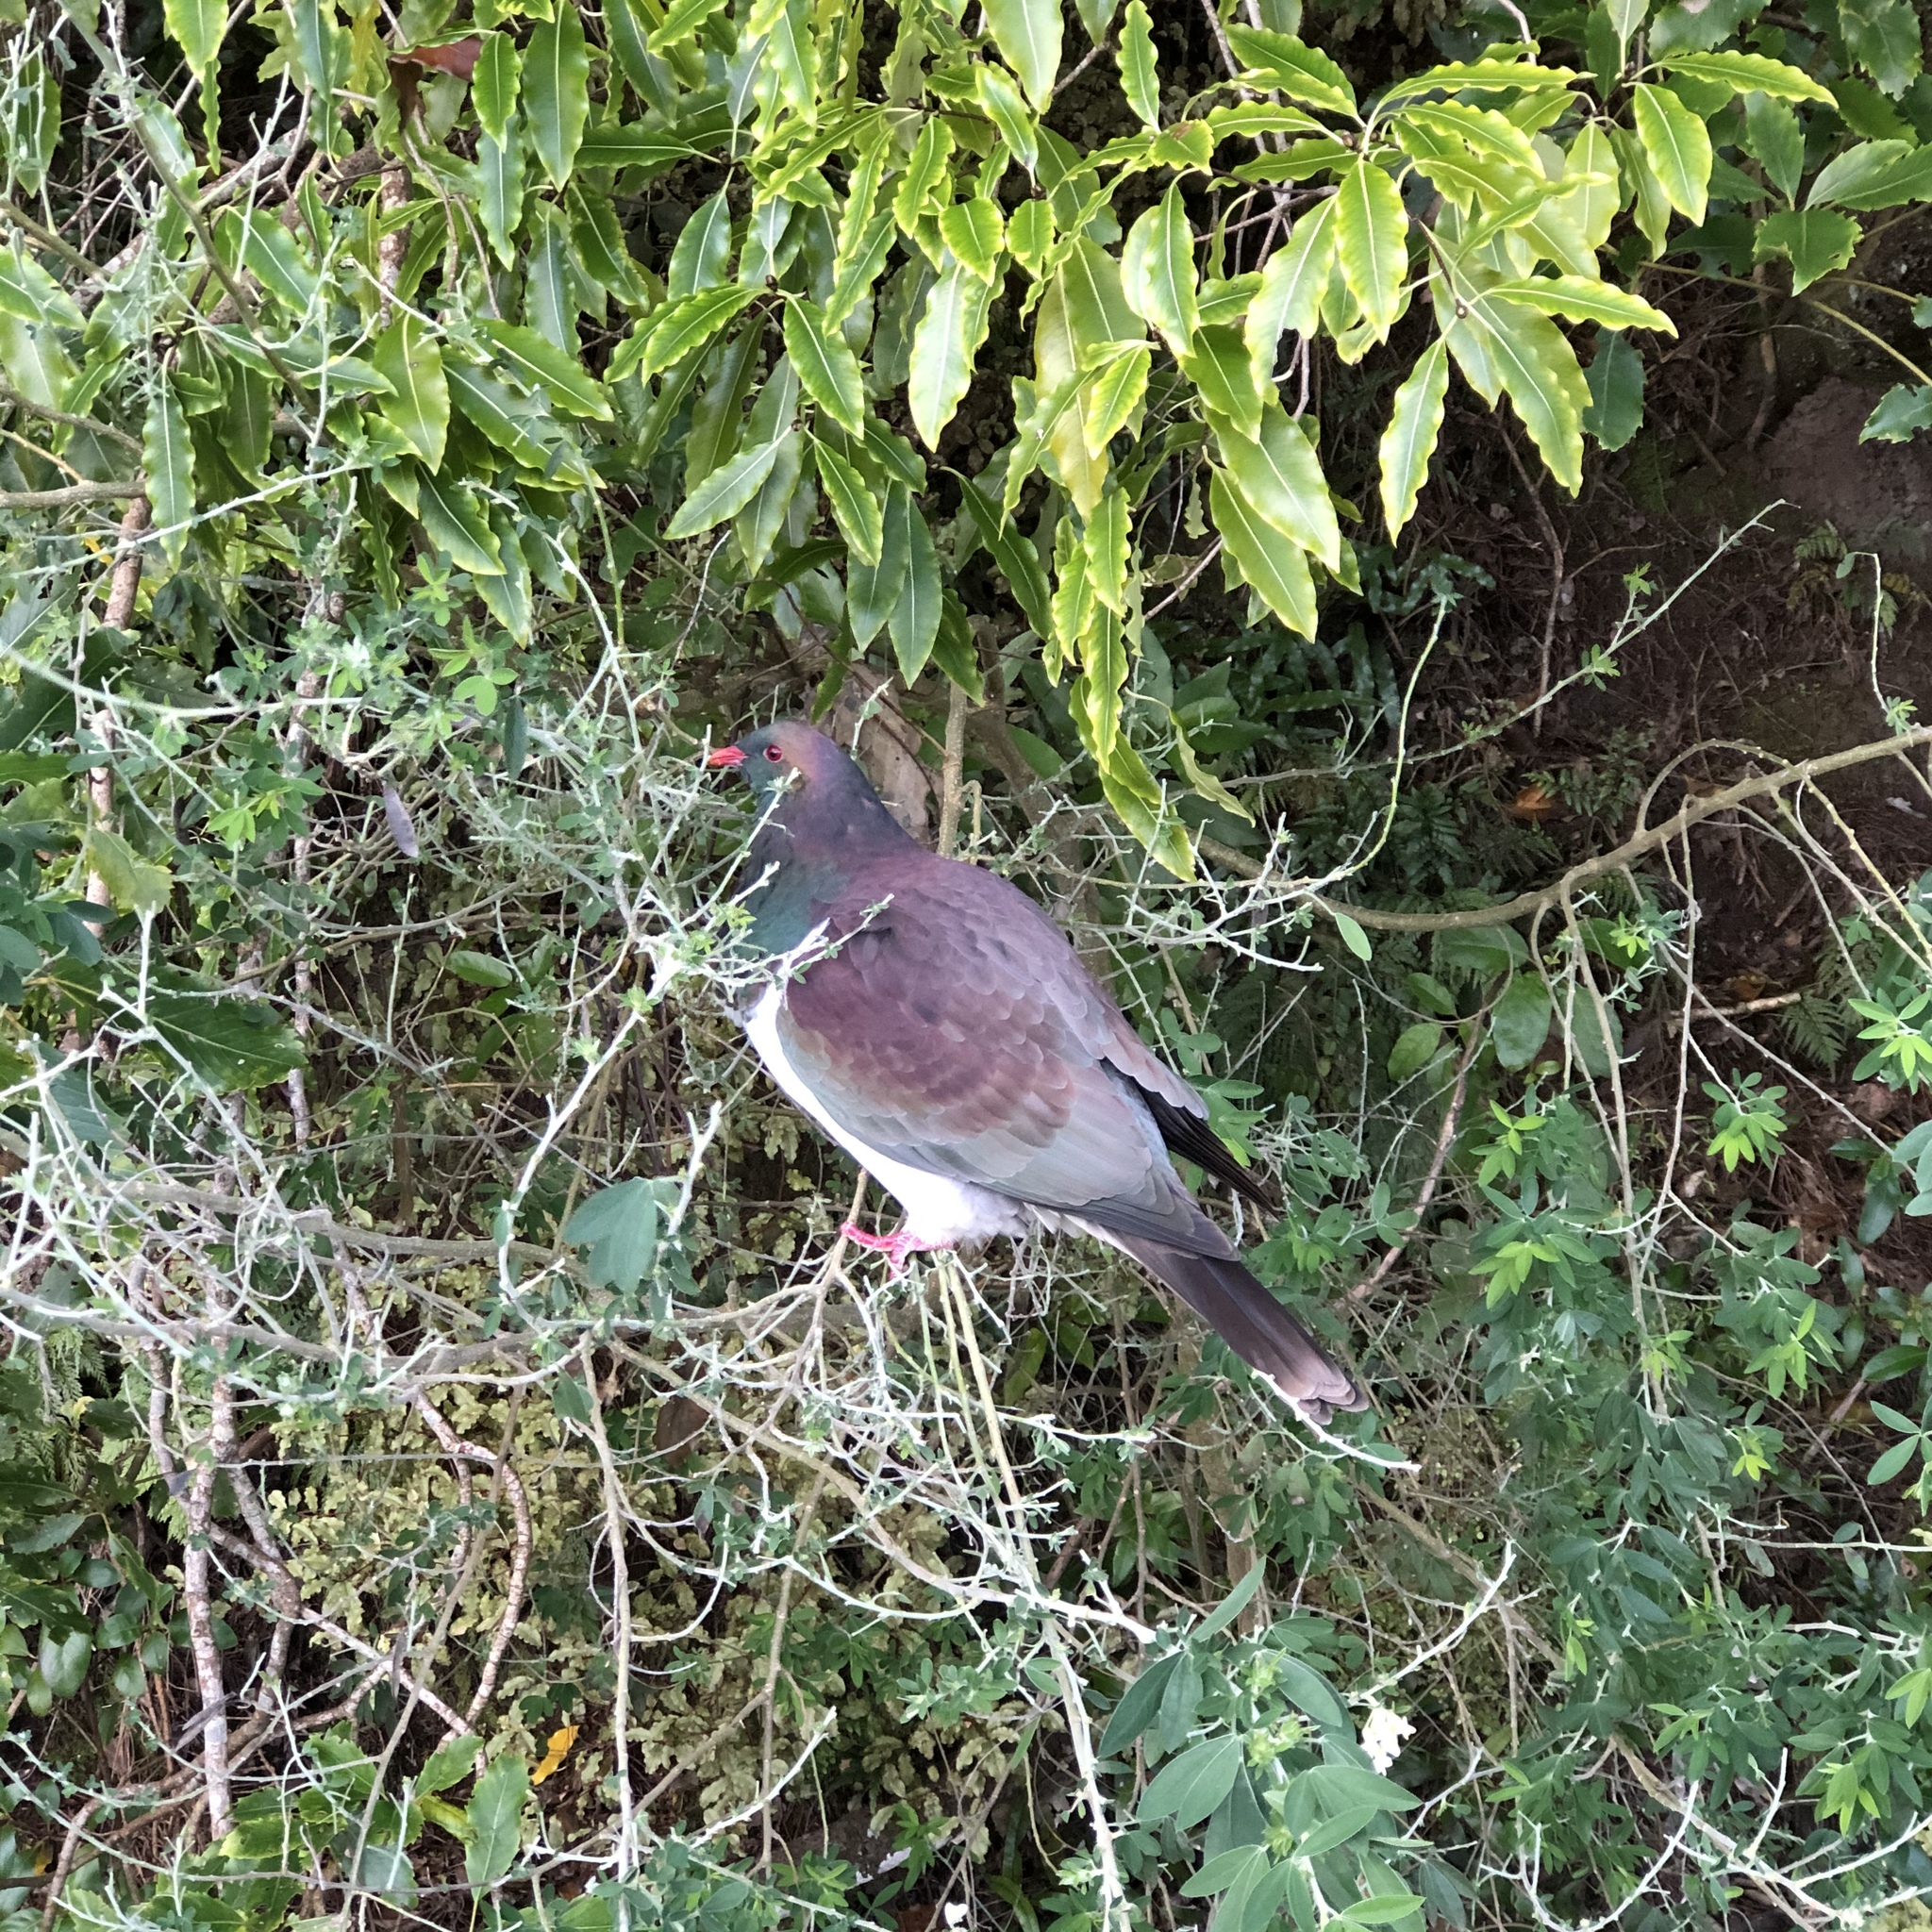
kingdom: Animalia
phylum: Chordata
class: Aves
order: Columbiformes
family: Columbidae
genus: Hemiphaga
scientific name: Hemiphaga novaeseelandiae
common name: New zealand pigeon
